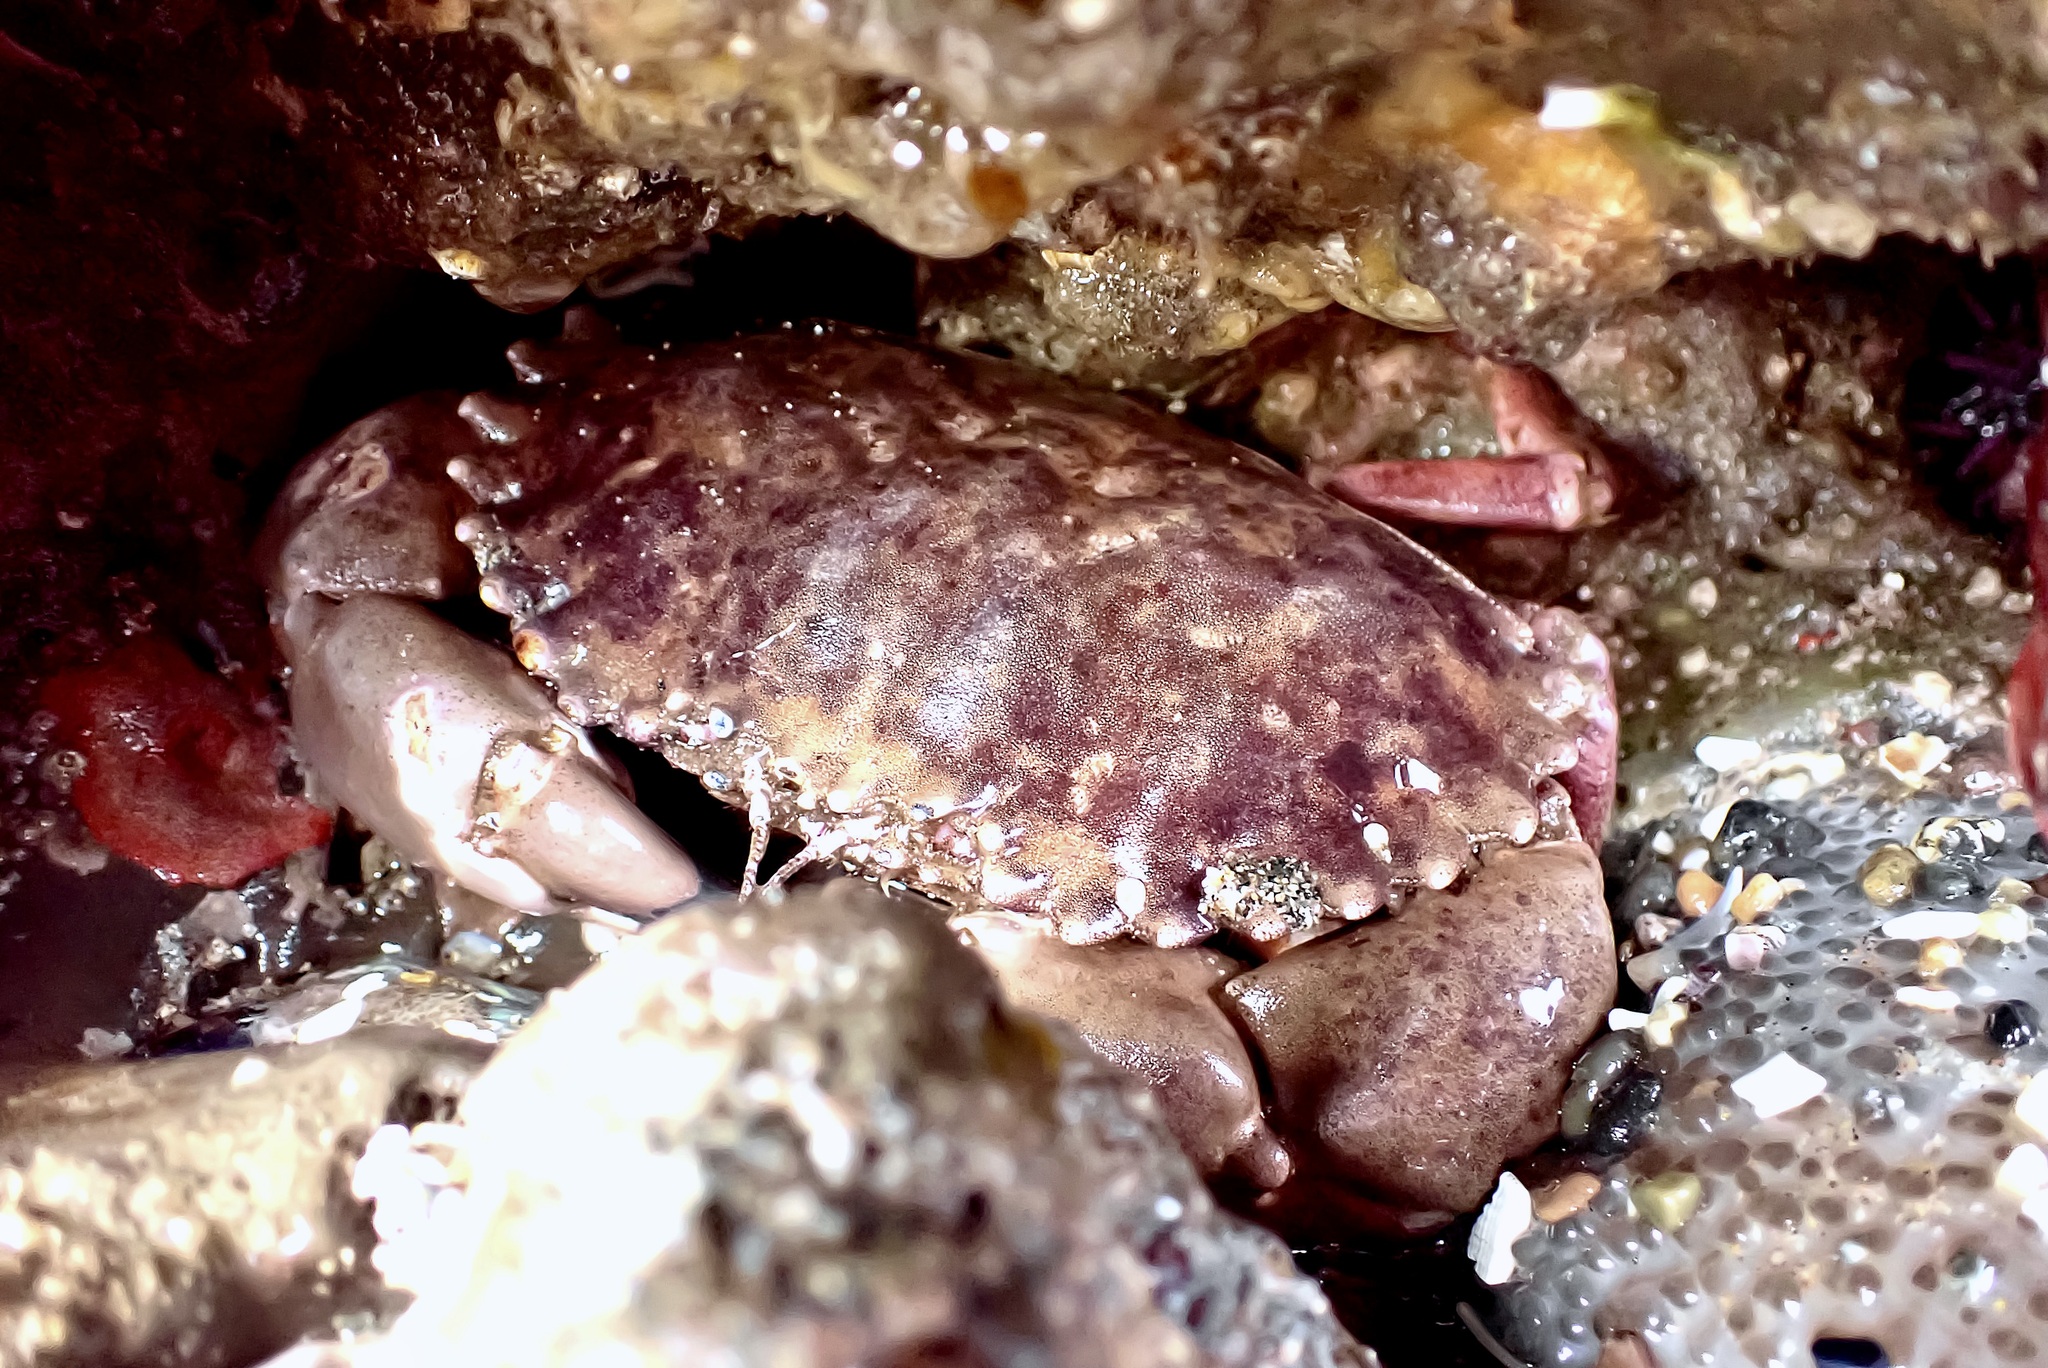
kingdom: Animalia
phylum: Arthropoda
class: Malacostraca
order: Decapoda
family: Cancridae
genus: Romaleon
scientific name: Romaleon antennarium
